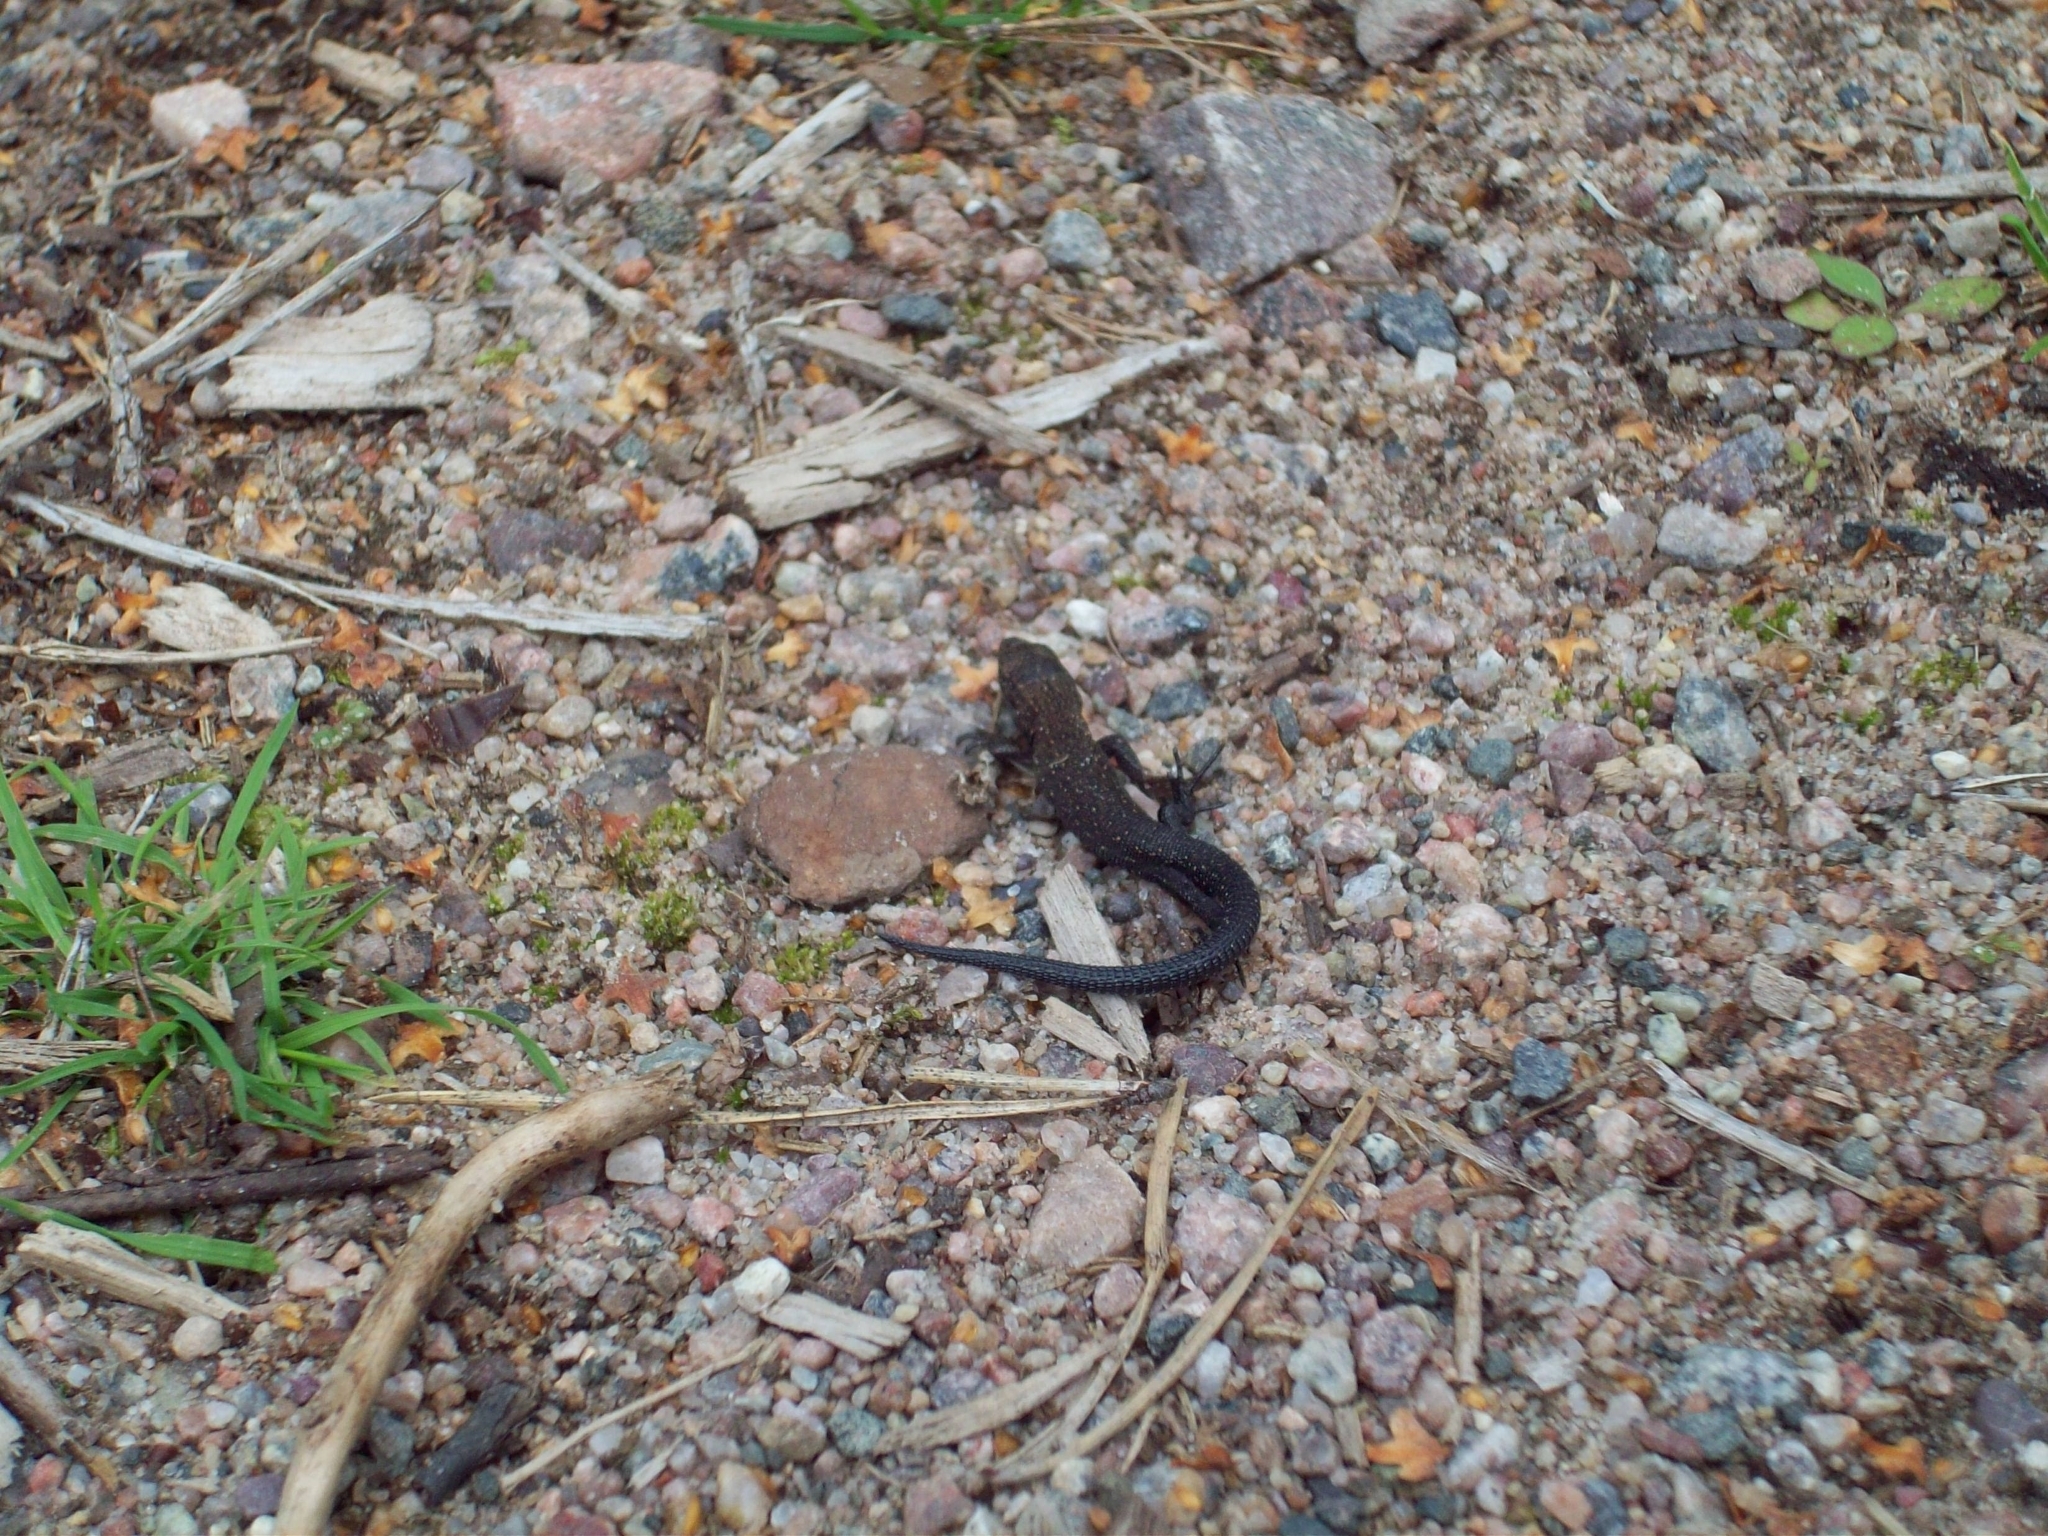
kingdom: Animalia
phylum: Chordata
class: Squamata
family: Lacertidae
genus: Zootoca
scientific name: Zootoca vivipara
